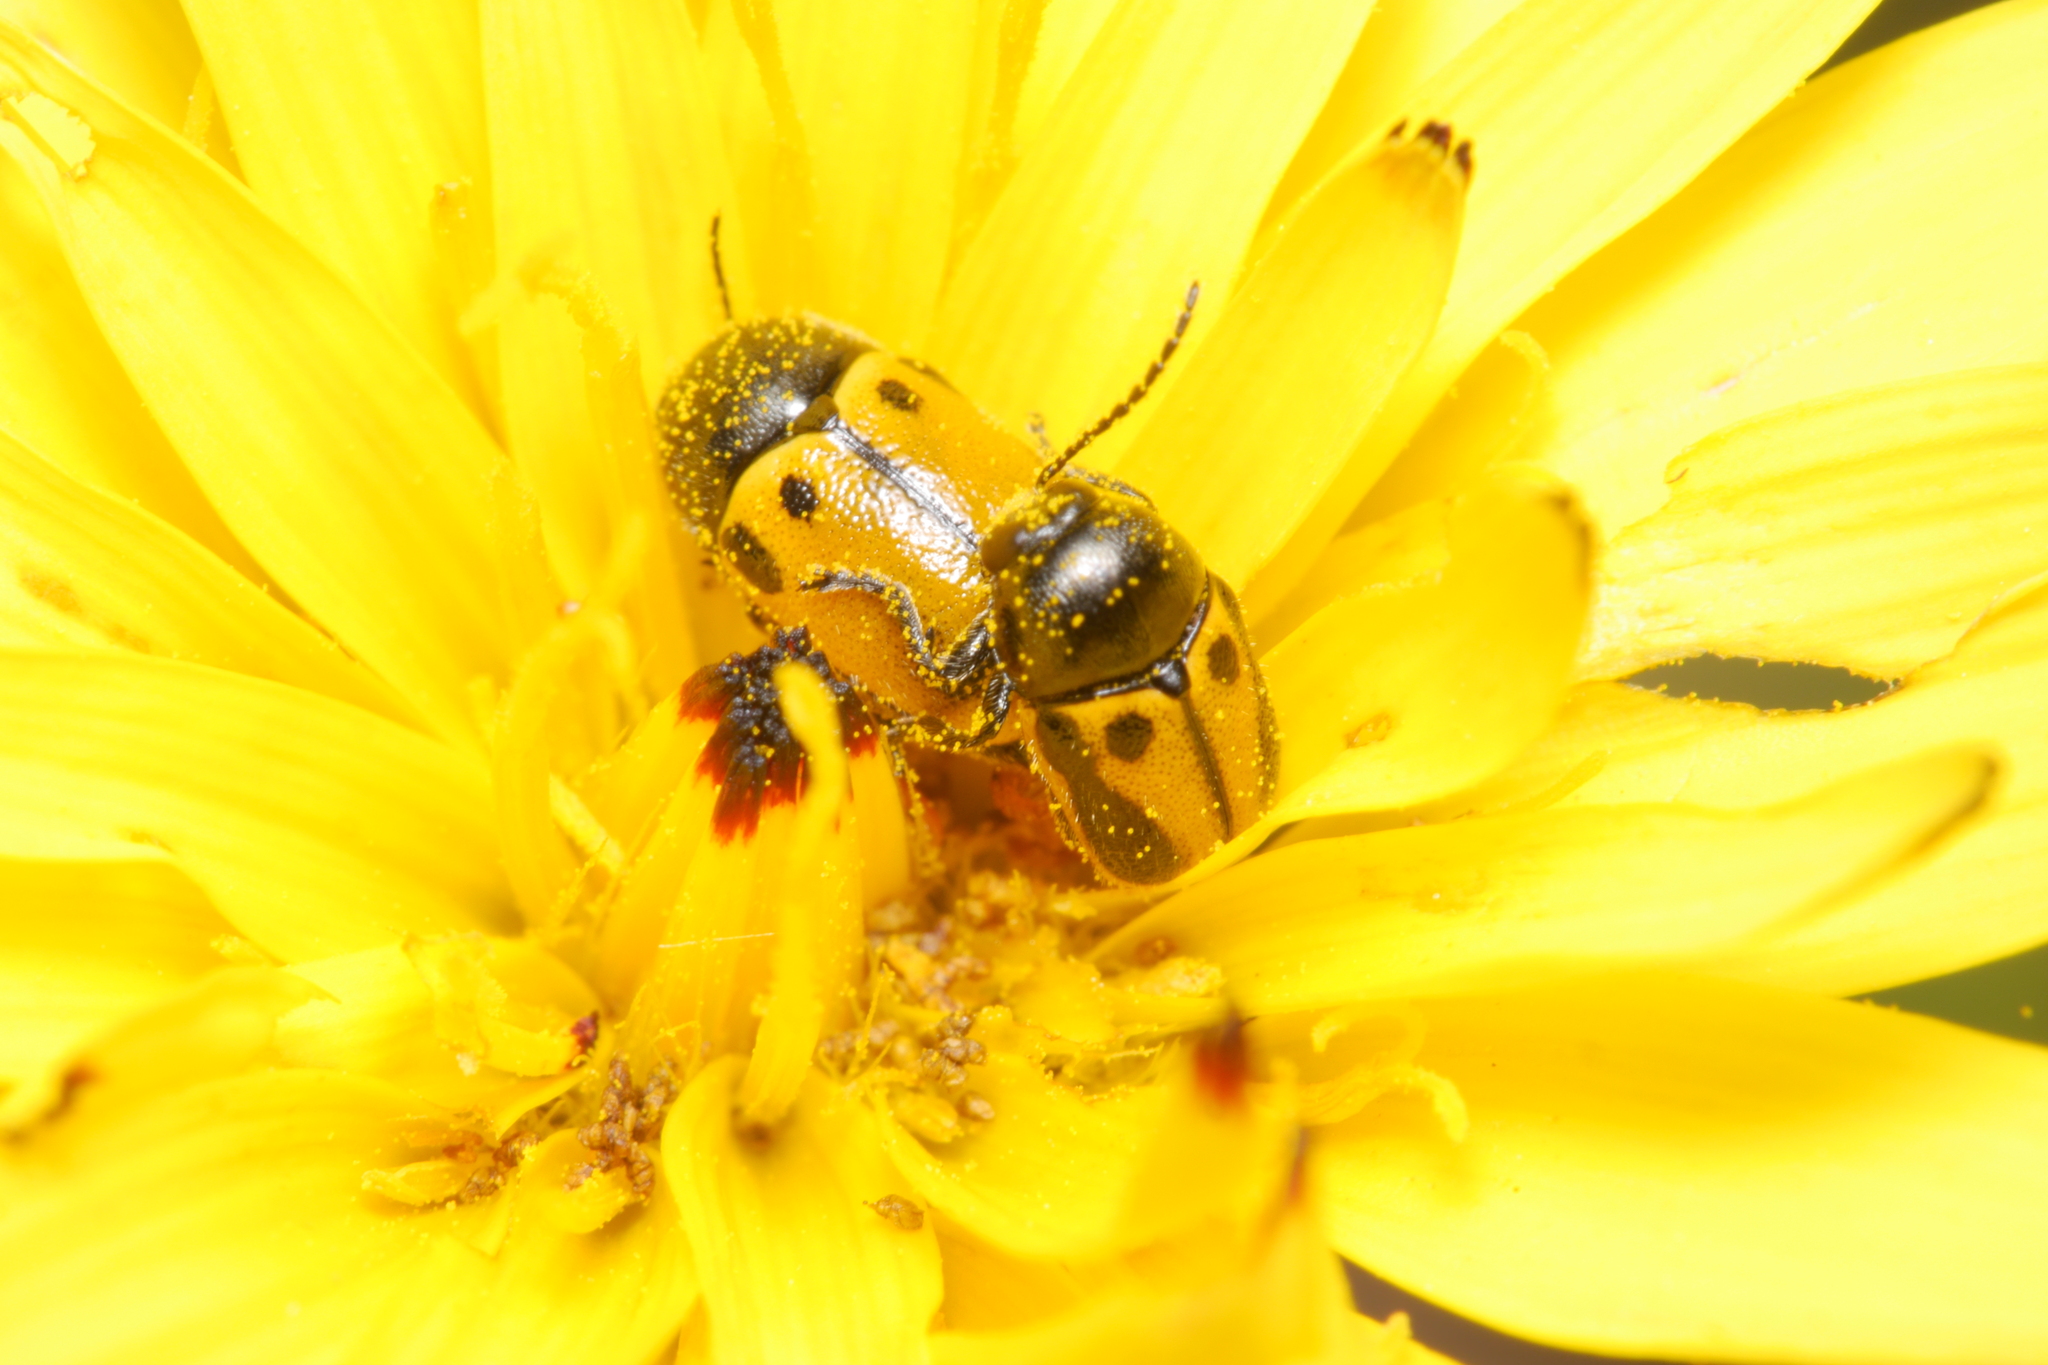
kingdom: Animalia
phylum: Arthropoda
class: Insecta
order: Coleoptera
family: Chrysomelidae
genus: Cryptocephalus
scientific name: Cryptocephalus rugicollis
